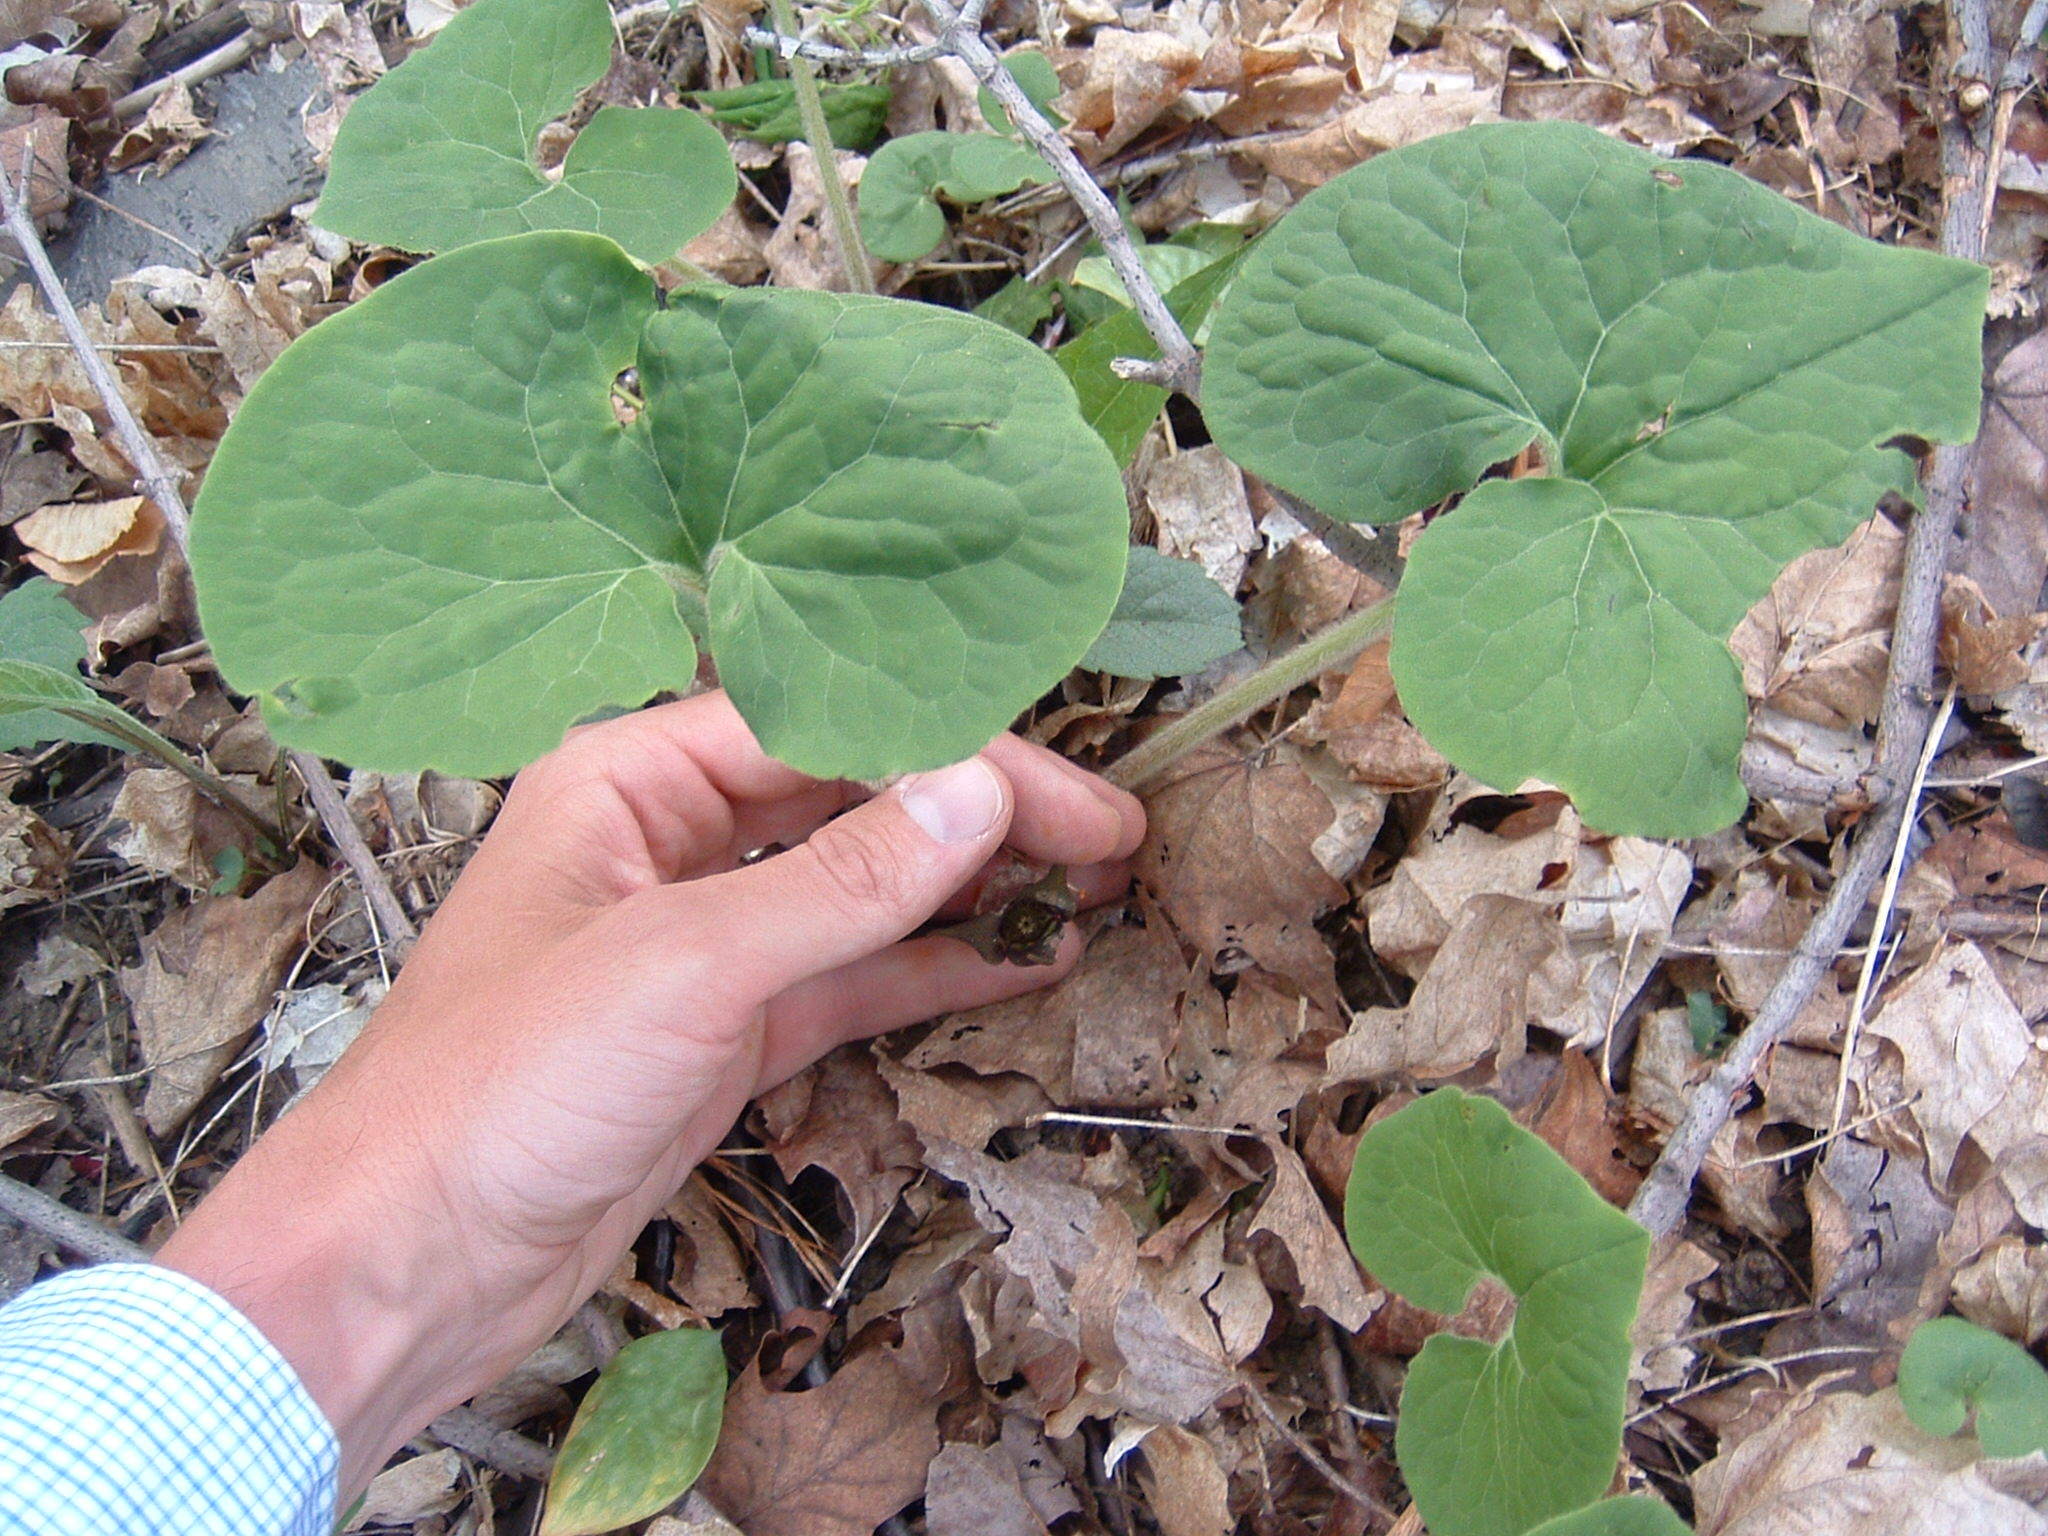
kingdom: Plantae
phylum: Tracheophyta
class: Magnoliopsida
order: Piperales
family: Aristolochiaceae
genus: Asarum
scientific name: Asarum canadense
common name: Wild ginger
